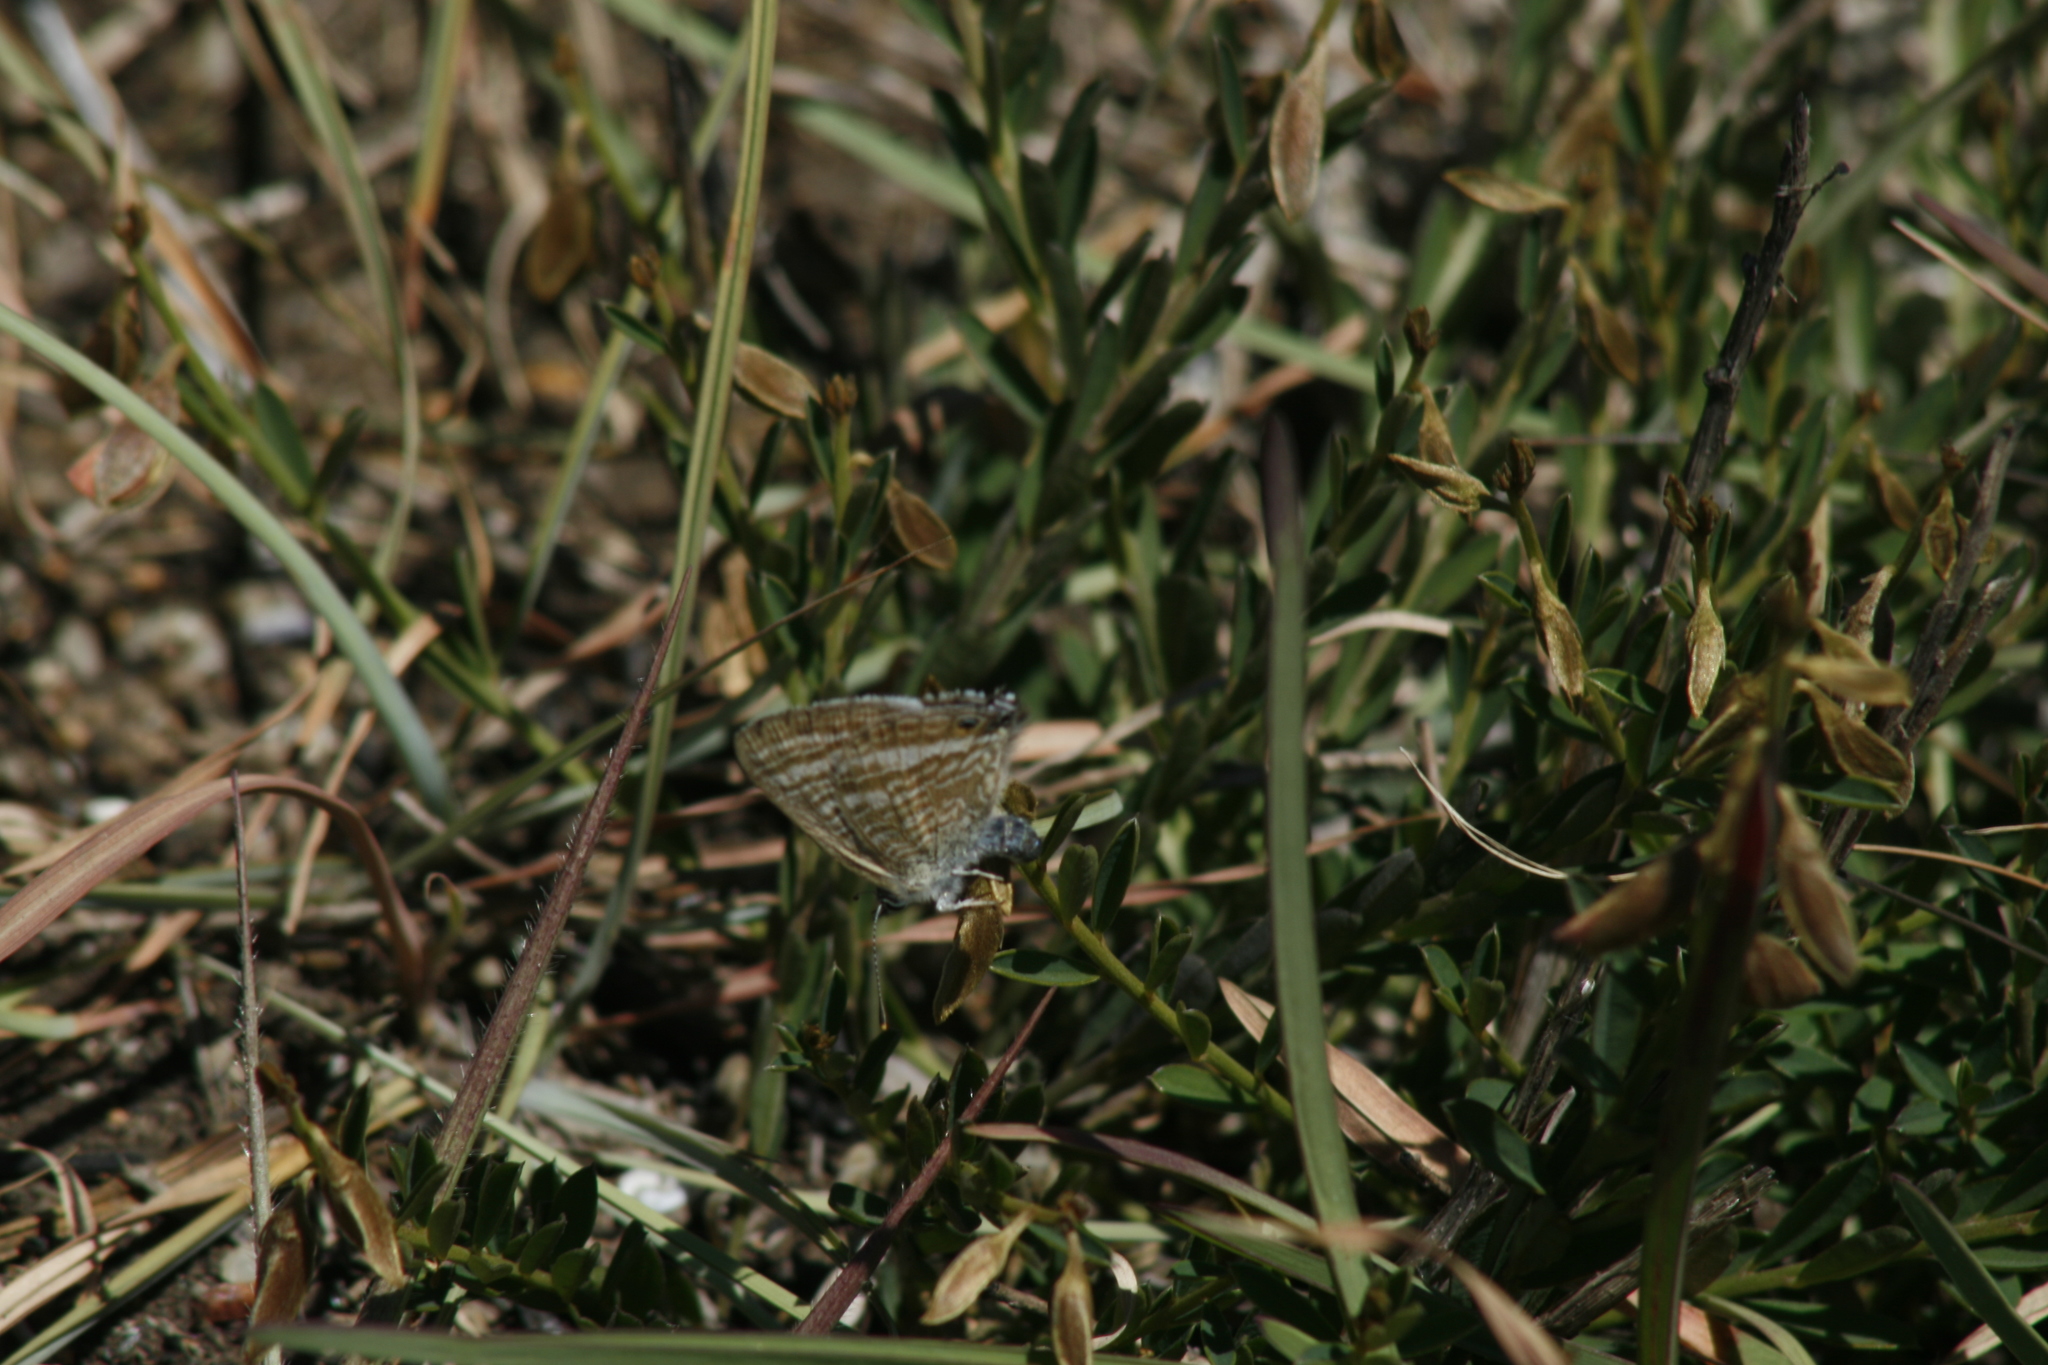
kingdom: Animalia
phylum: Arthropoda
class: Insecta
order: Lepidoptera
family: Lycaenidae
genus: Lampides
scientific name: Lampides boeticus
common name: Long-tailed blue
